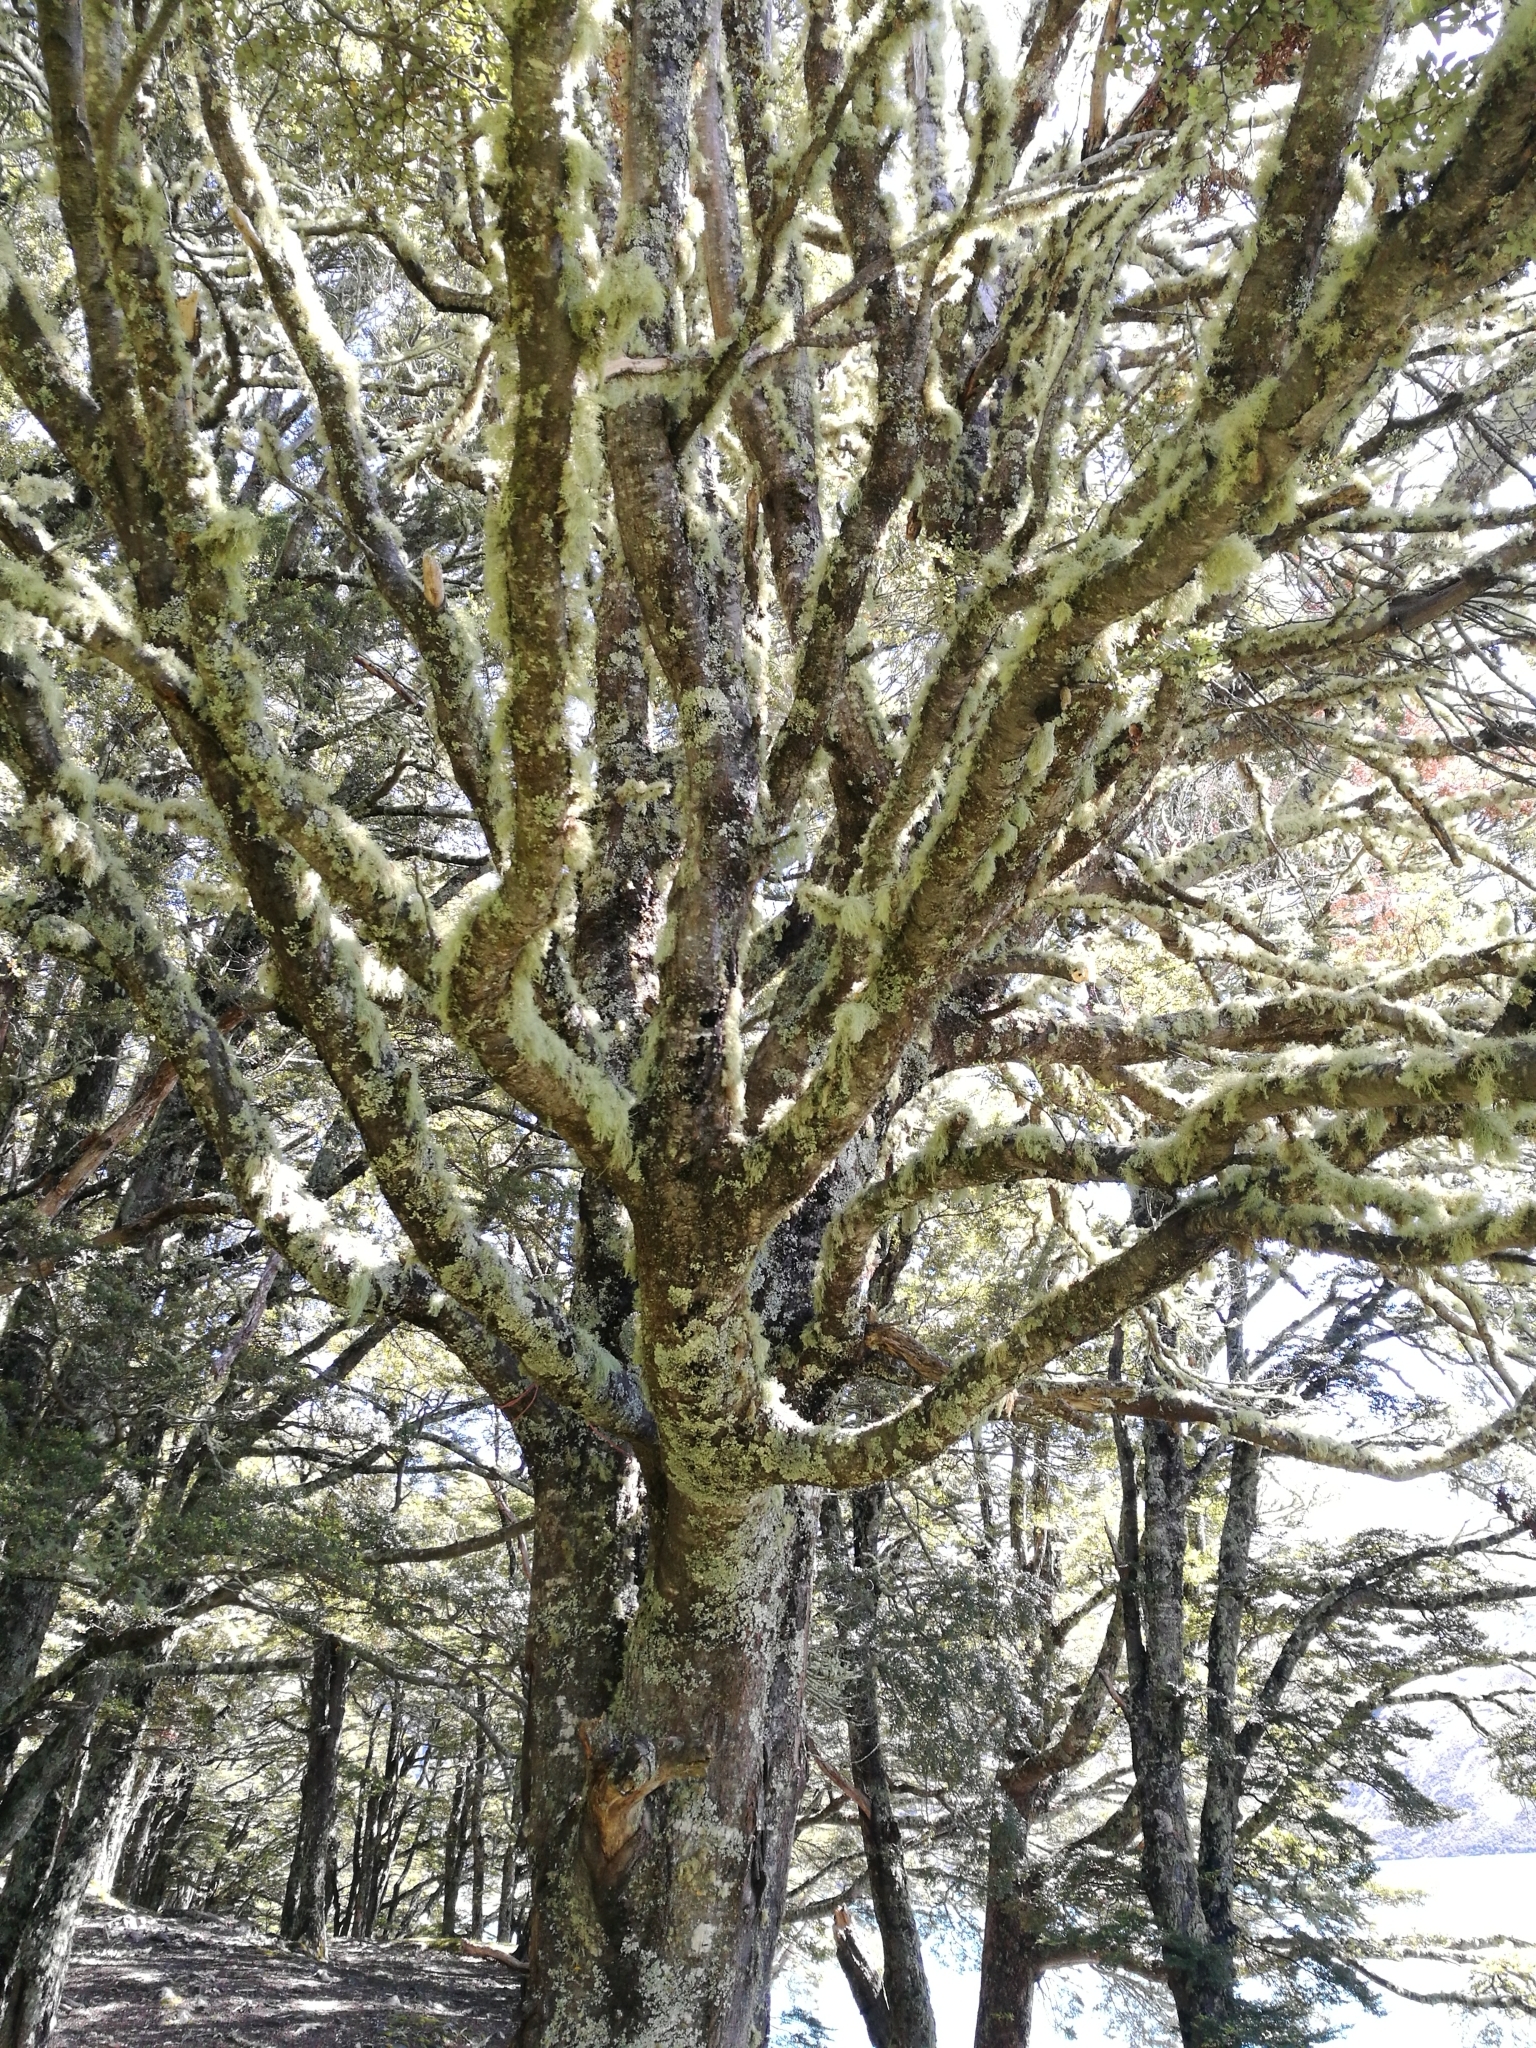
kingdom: Plantae
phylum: Tracheophyta
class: Magnoliopsida
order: Fagales
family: Nothofagaceae
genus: Nothofagus
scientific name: Nothofagus cliffortioides
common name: Mountain beech
